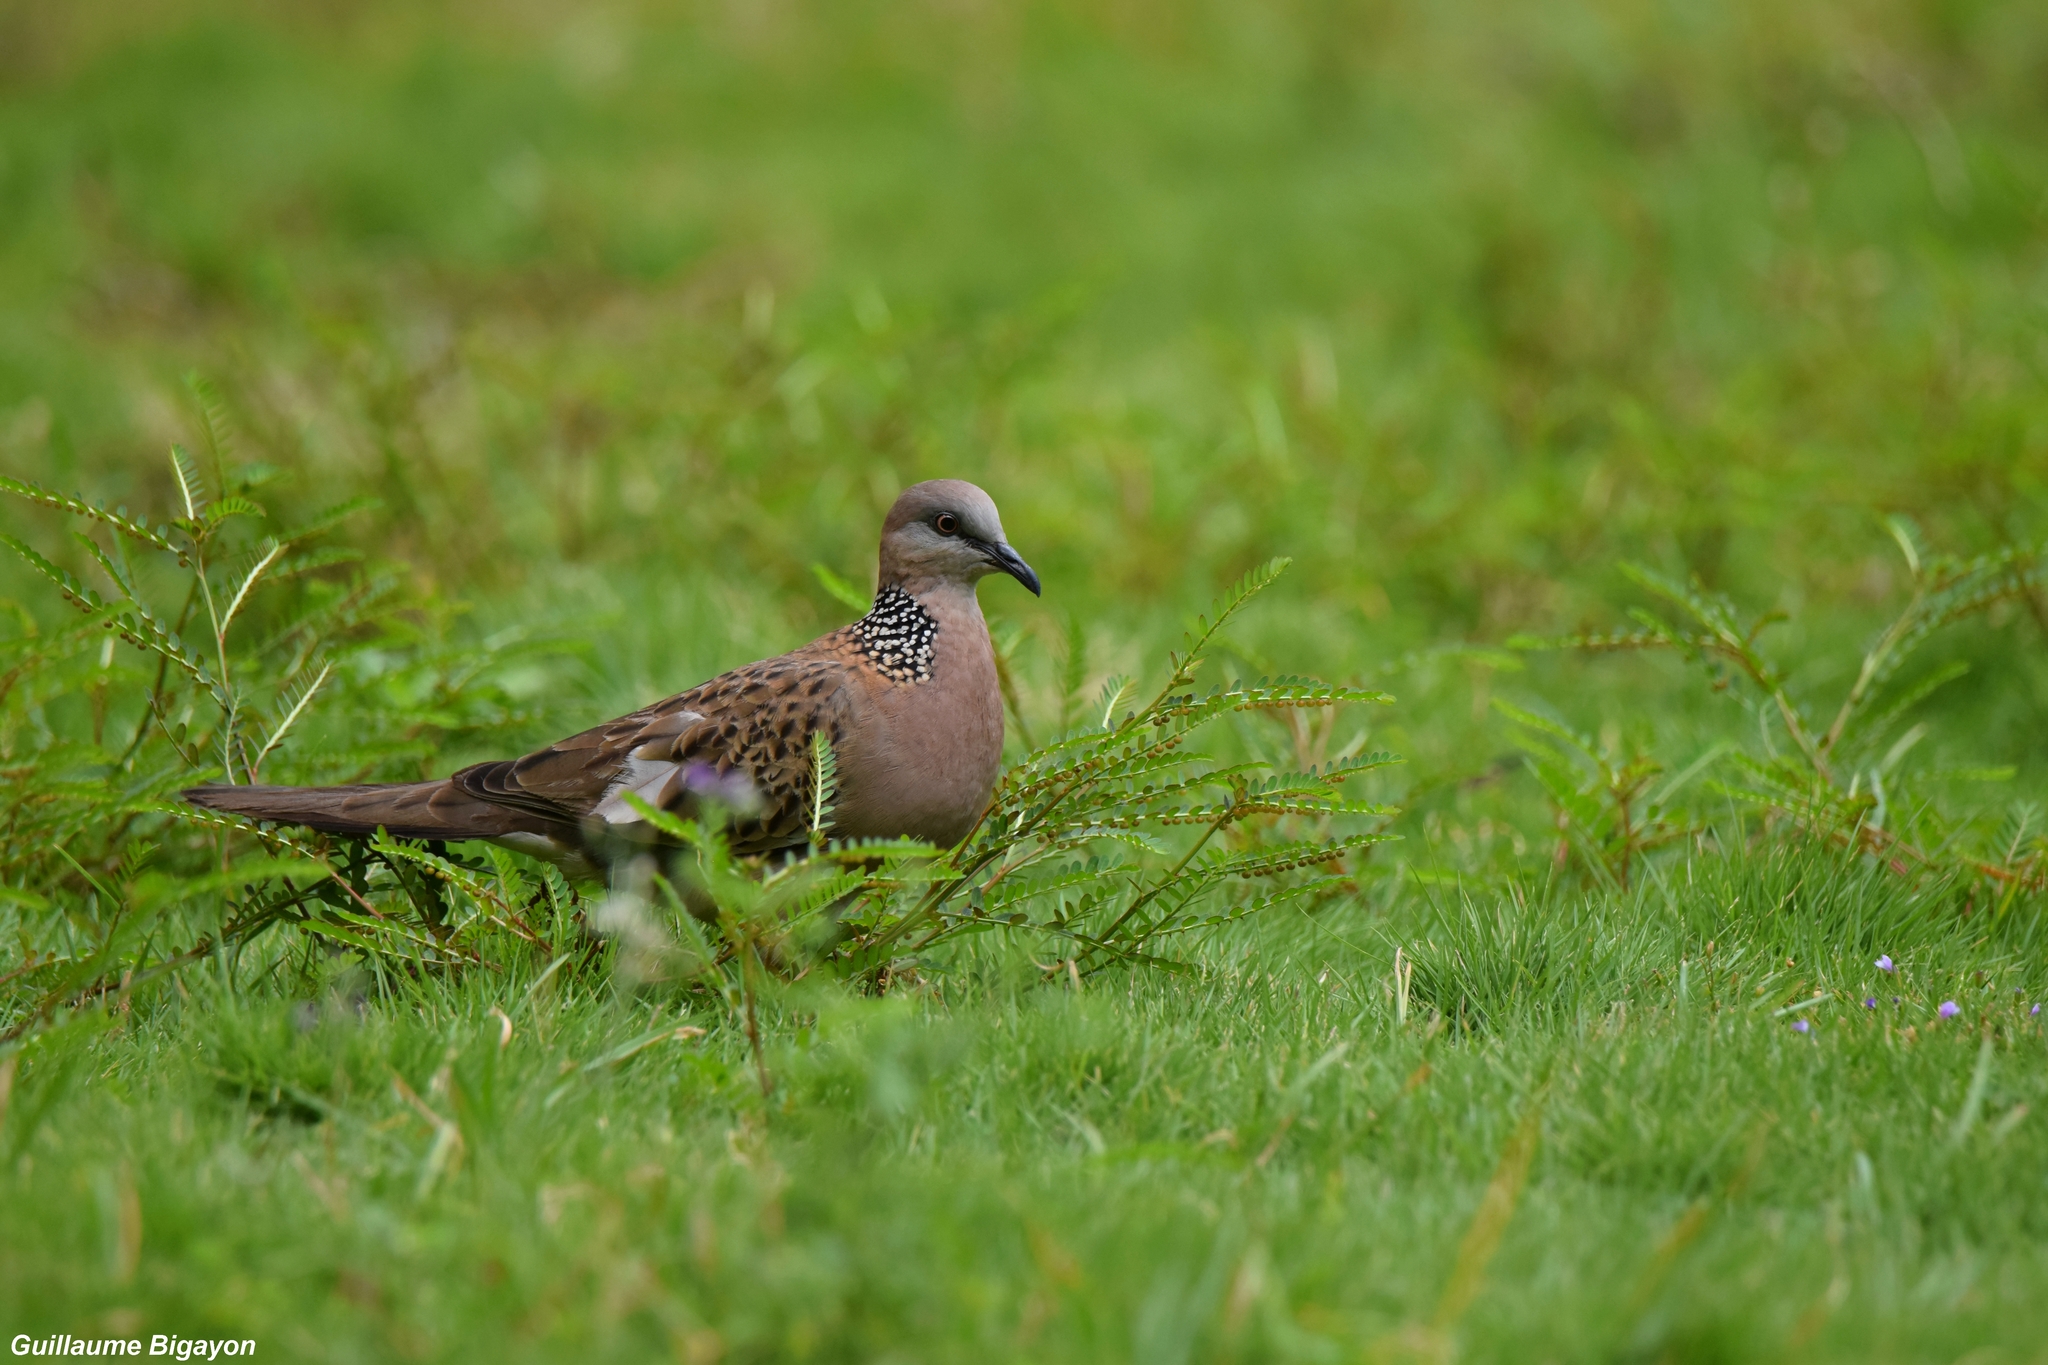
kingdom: Animalia
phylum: Chordata
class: Aves
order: Columbiformes
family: Columbidae
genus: Spilopelia
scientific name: Spilopelia chinensis
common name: Spotted dove
